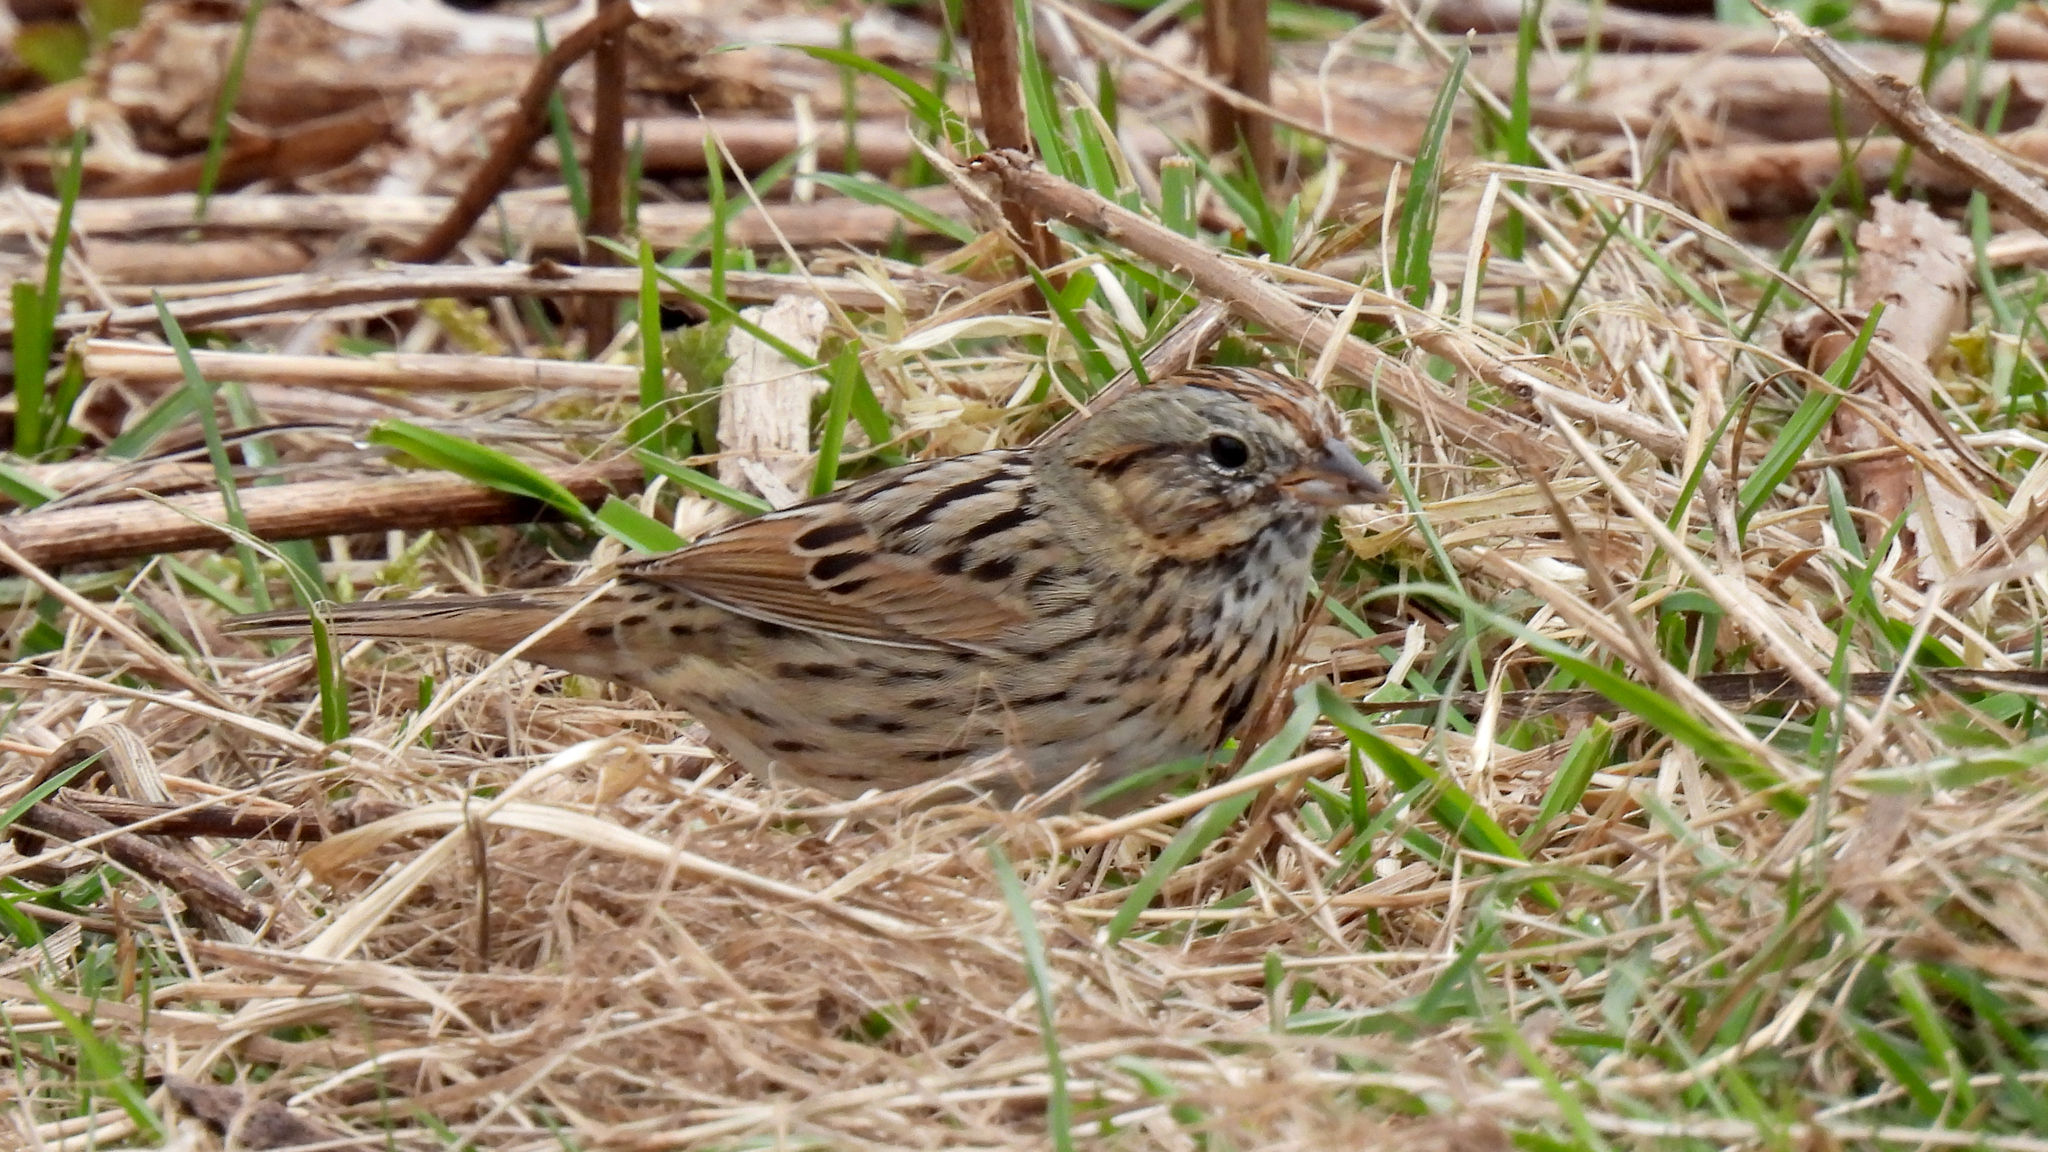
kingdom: Animalia
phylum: Chordata
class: Aves
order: Passeriformes
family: Passerellidae
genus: Melospiza
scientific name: Melospiza lincolnii
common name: Lincoln's sparrow
